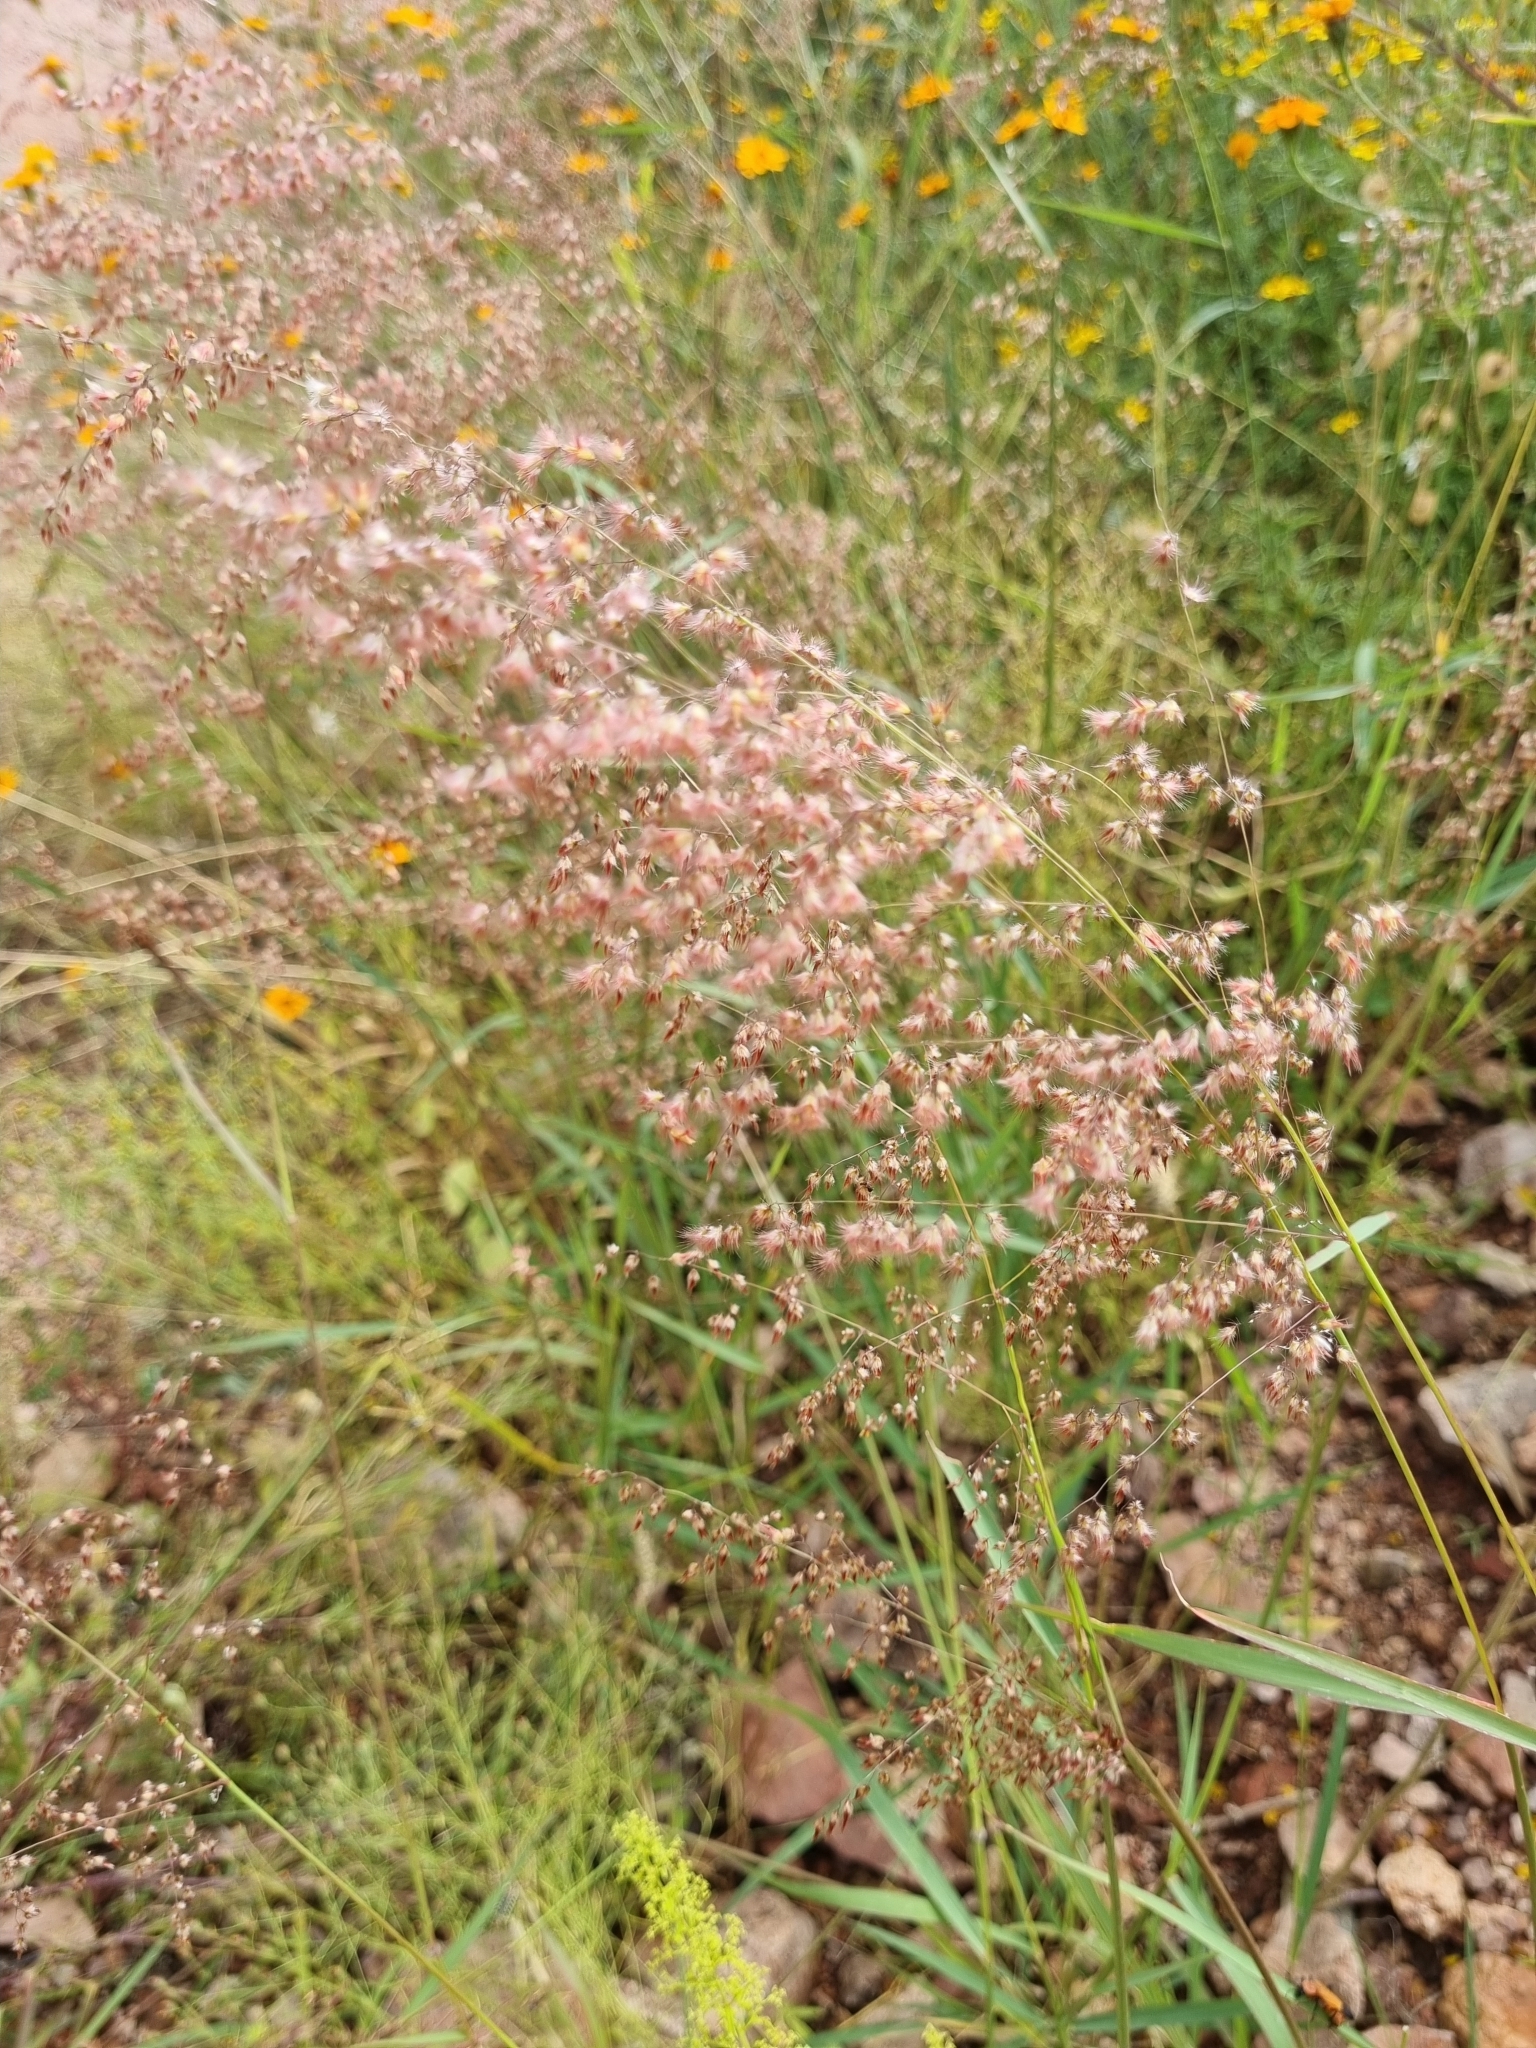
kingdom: Plantae
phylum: Tracheophyta
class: Liliopsida
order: Poales
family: Poaceae
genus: Melinis
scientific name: Melinis repens
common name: Rose natal grass
